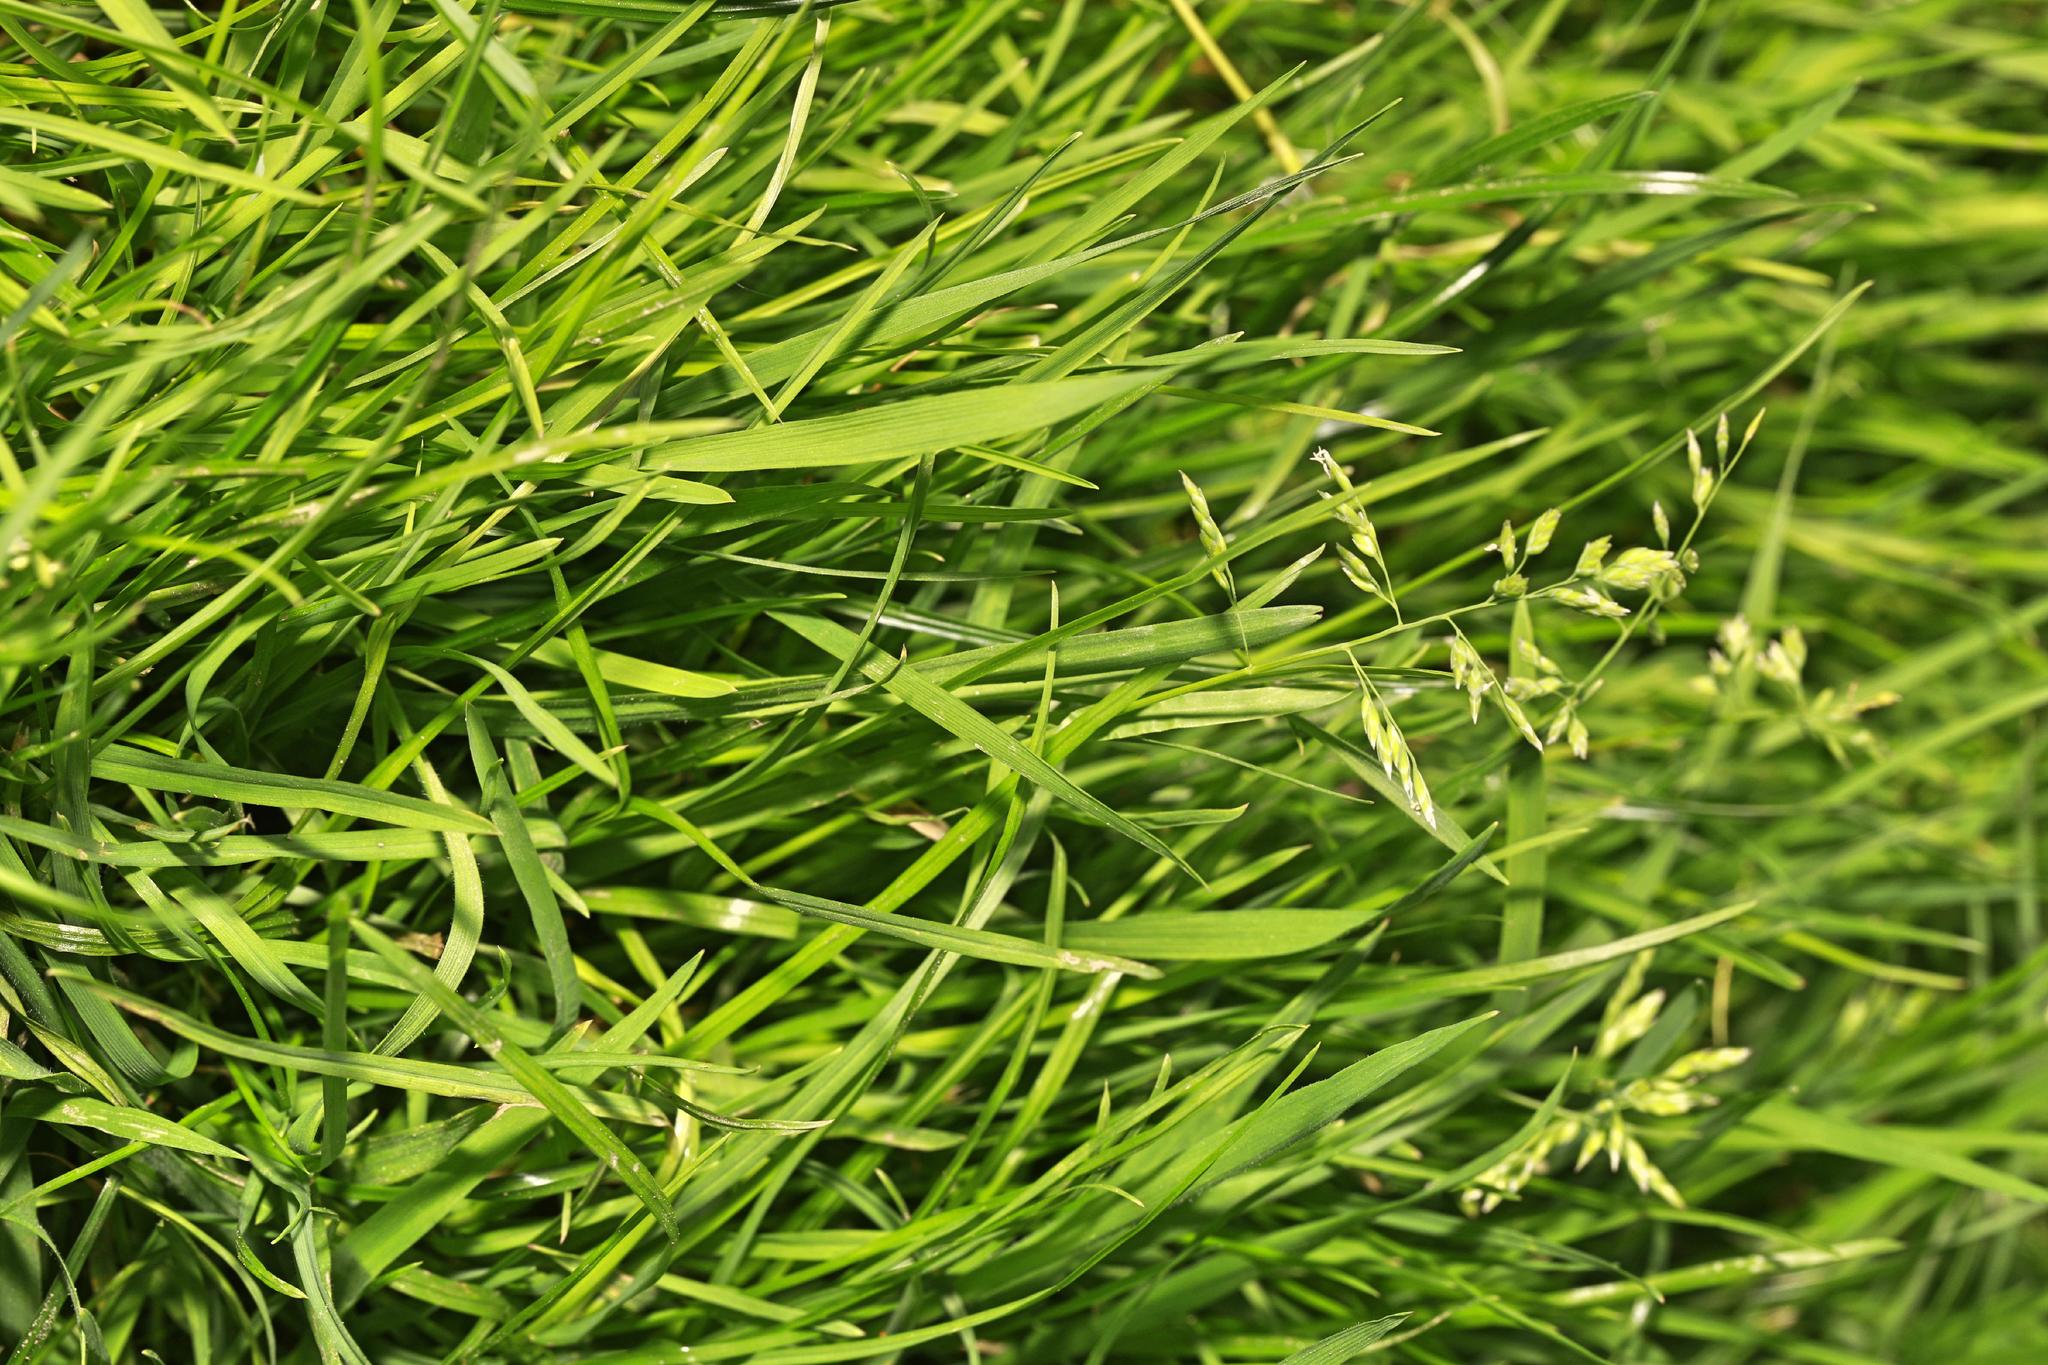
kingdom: Plantae
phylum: Tracheophyta
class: Liliopsida
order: Poales
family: Poaceae
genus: Poa
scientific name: Poa annua
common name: Annual bluegrass
